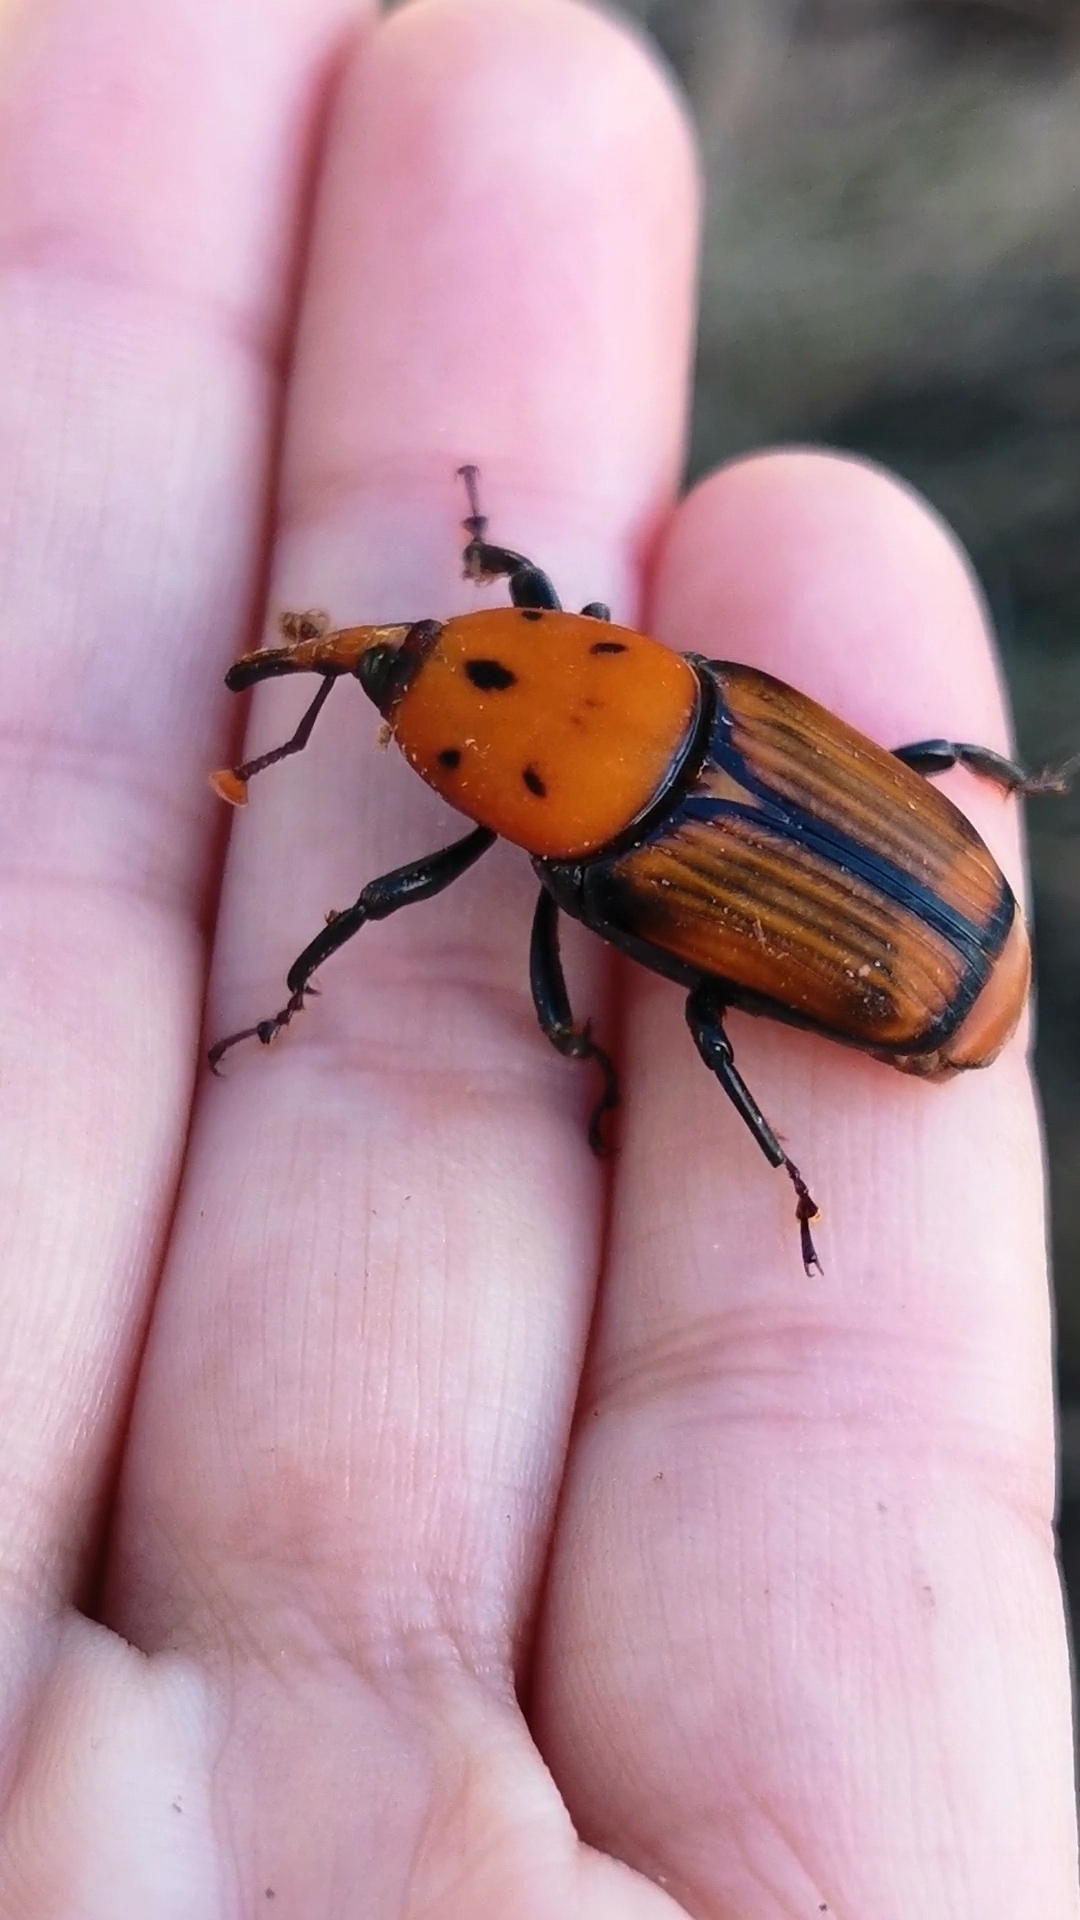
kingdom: Animalia
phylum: Arthropoda
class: Insecta
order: Coleoptera
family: Dryophthoridae
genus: Rhynchophorus
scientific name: Rhynchophorus ferrugineus
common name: Red palm weevil
